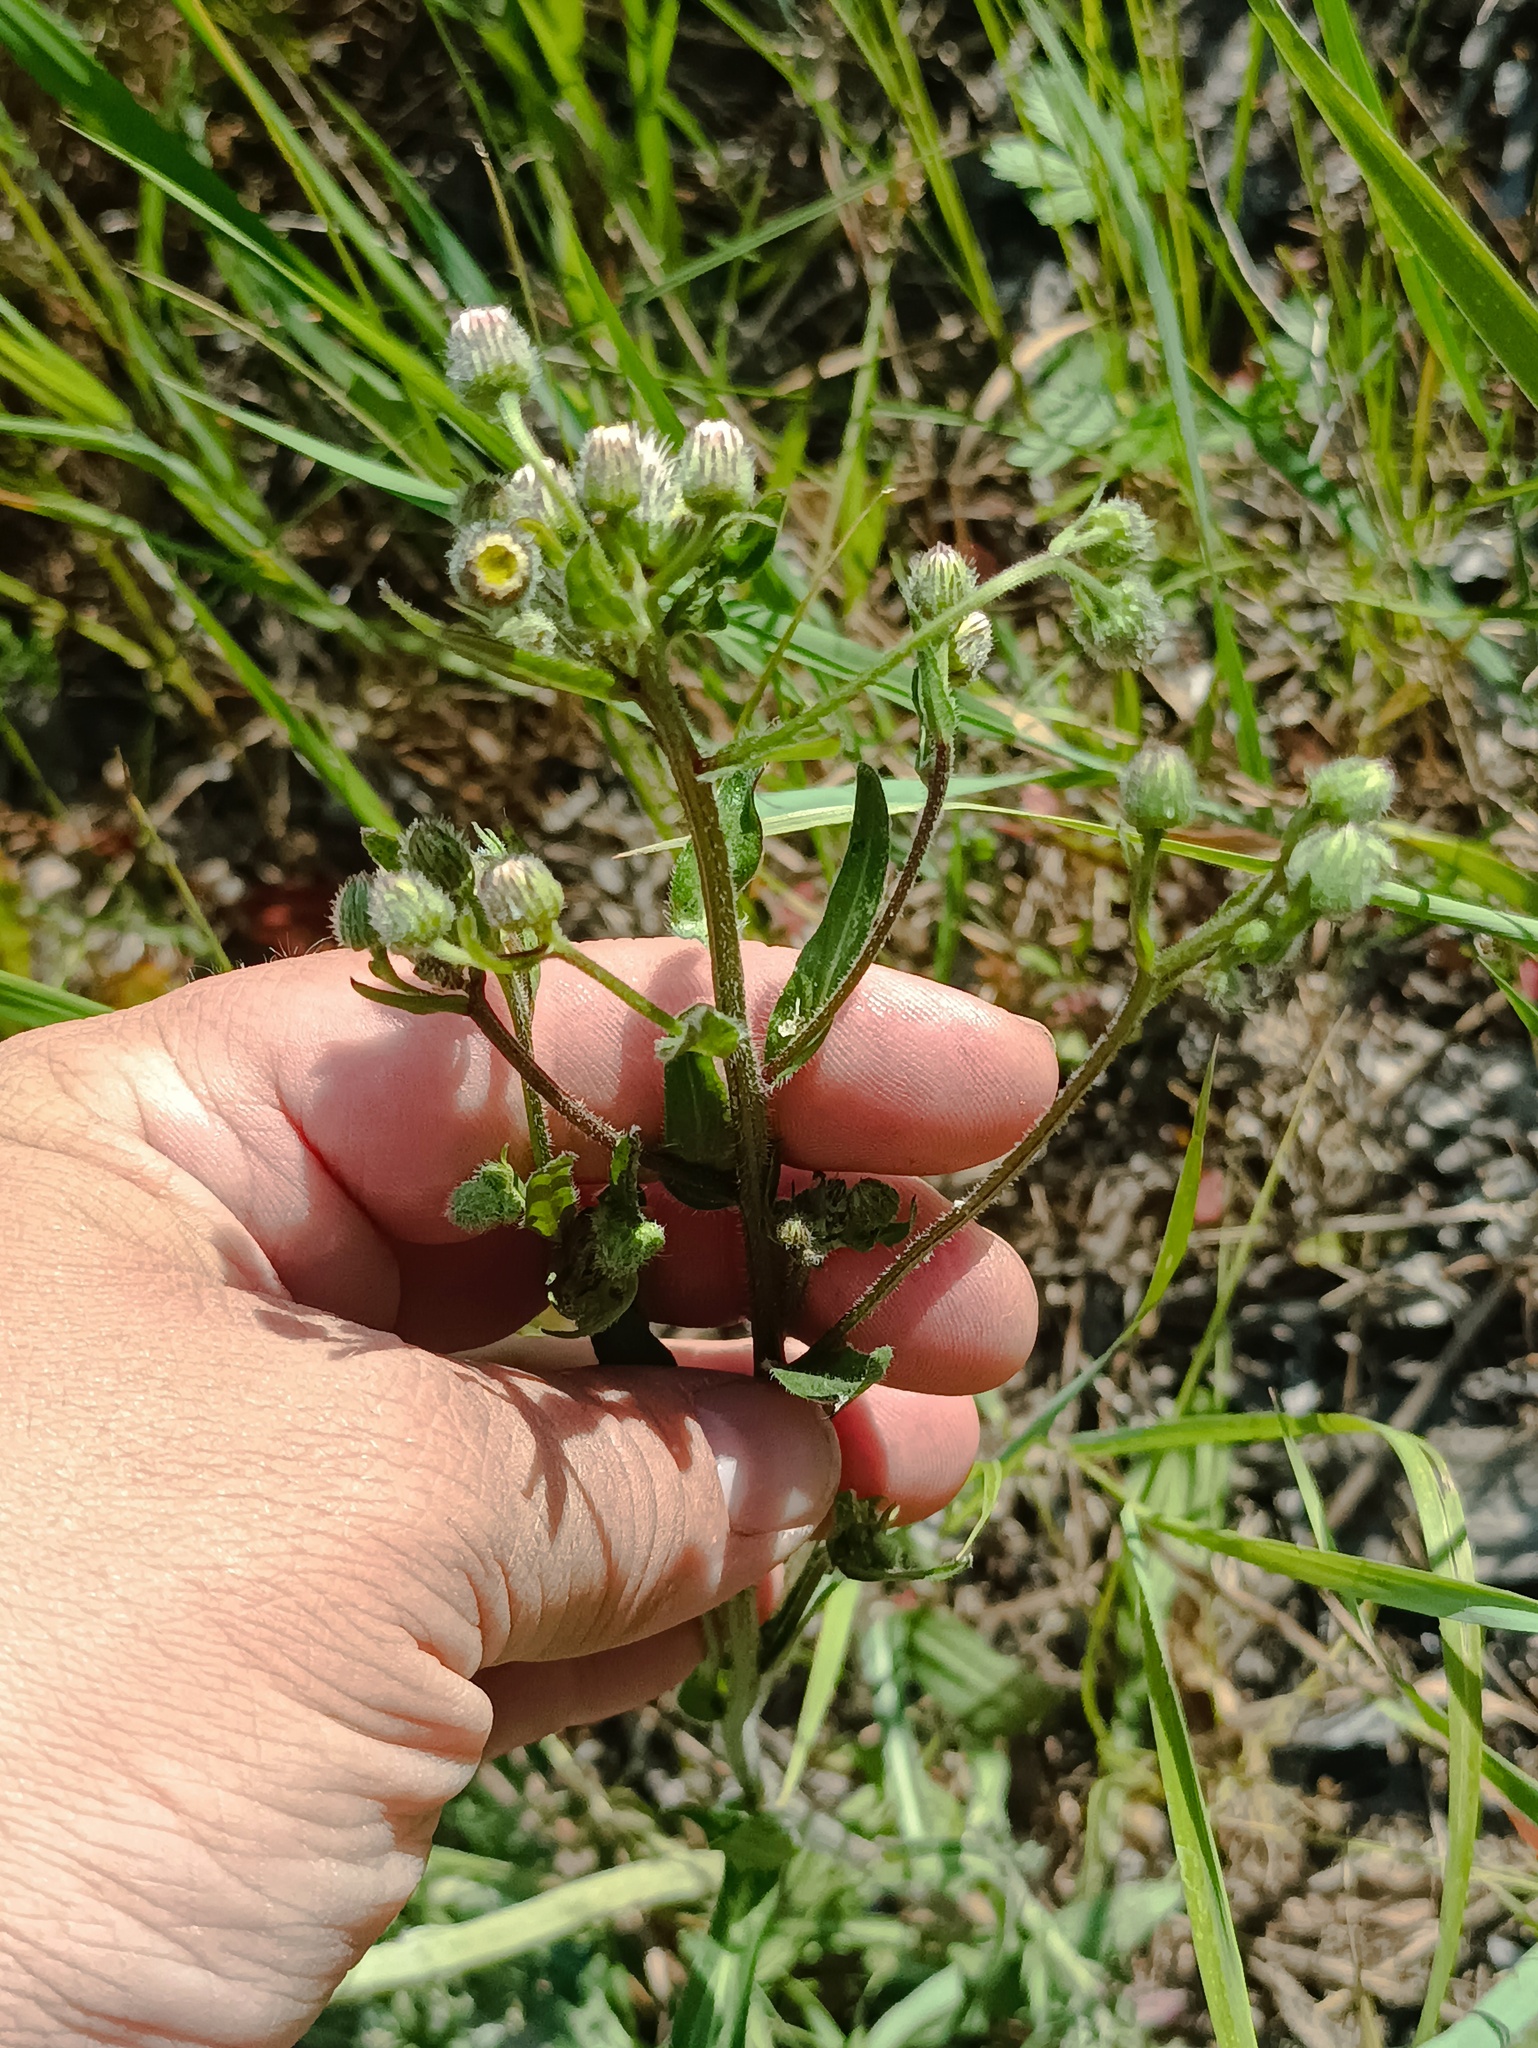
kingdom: Plantae
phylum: Tracheophyta
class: Magnoliopsida
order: Asterales
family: Asteraceae
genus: Erigeron
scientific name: Erigeron acris
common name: Blue fleabane
